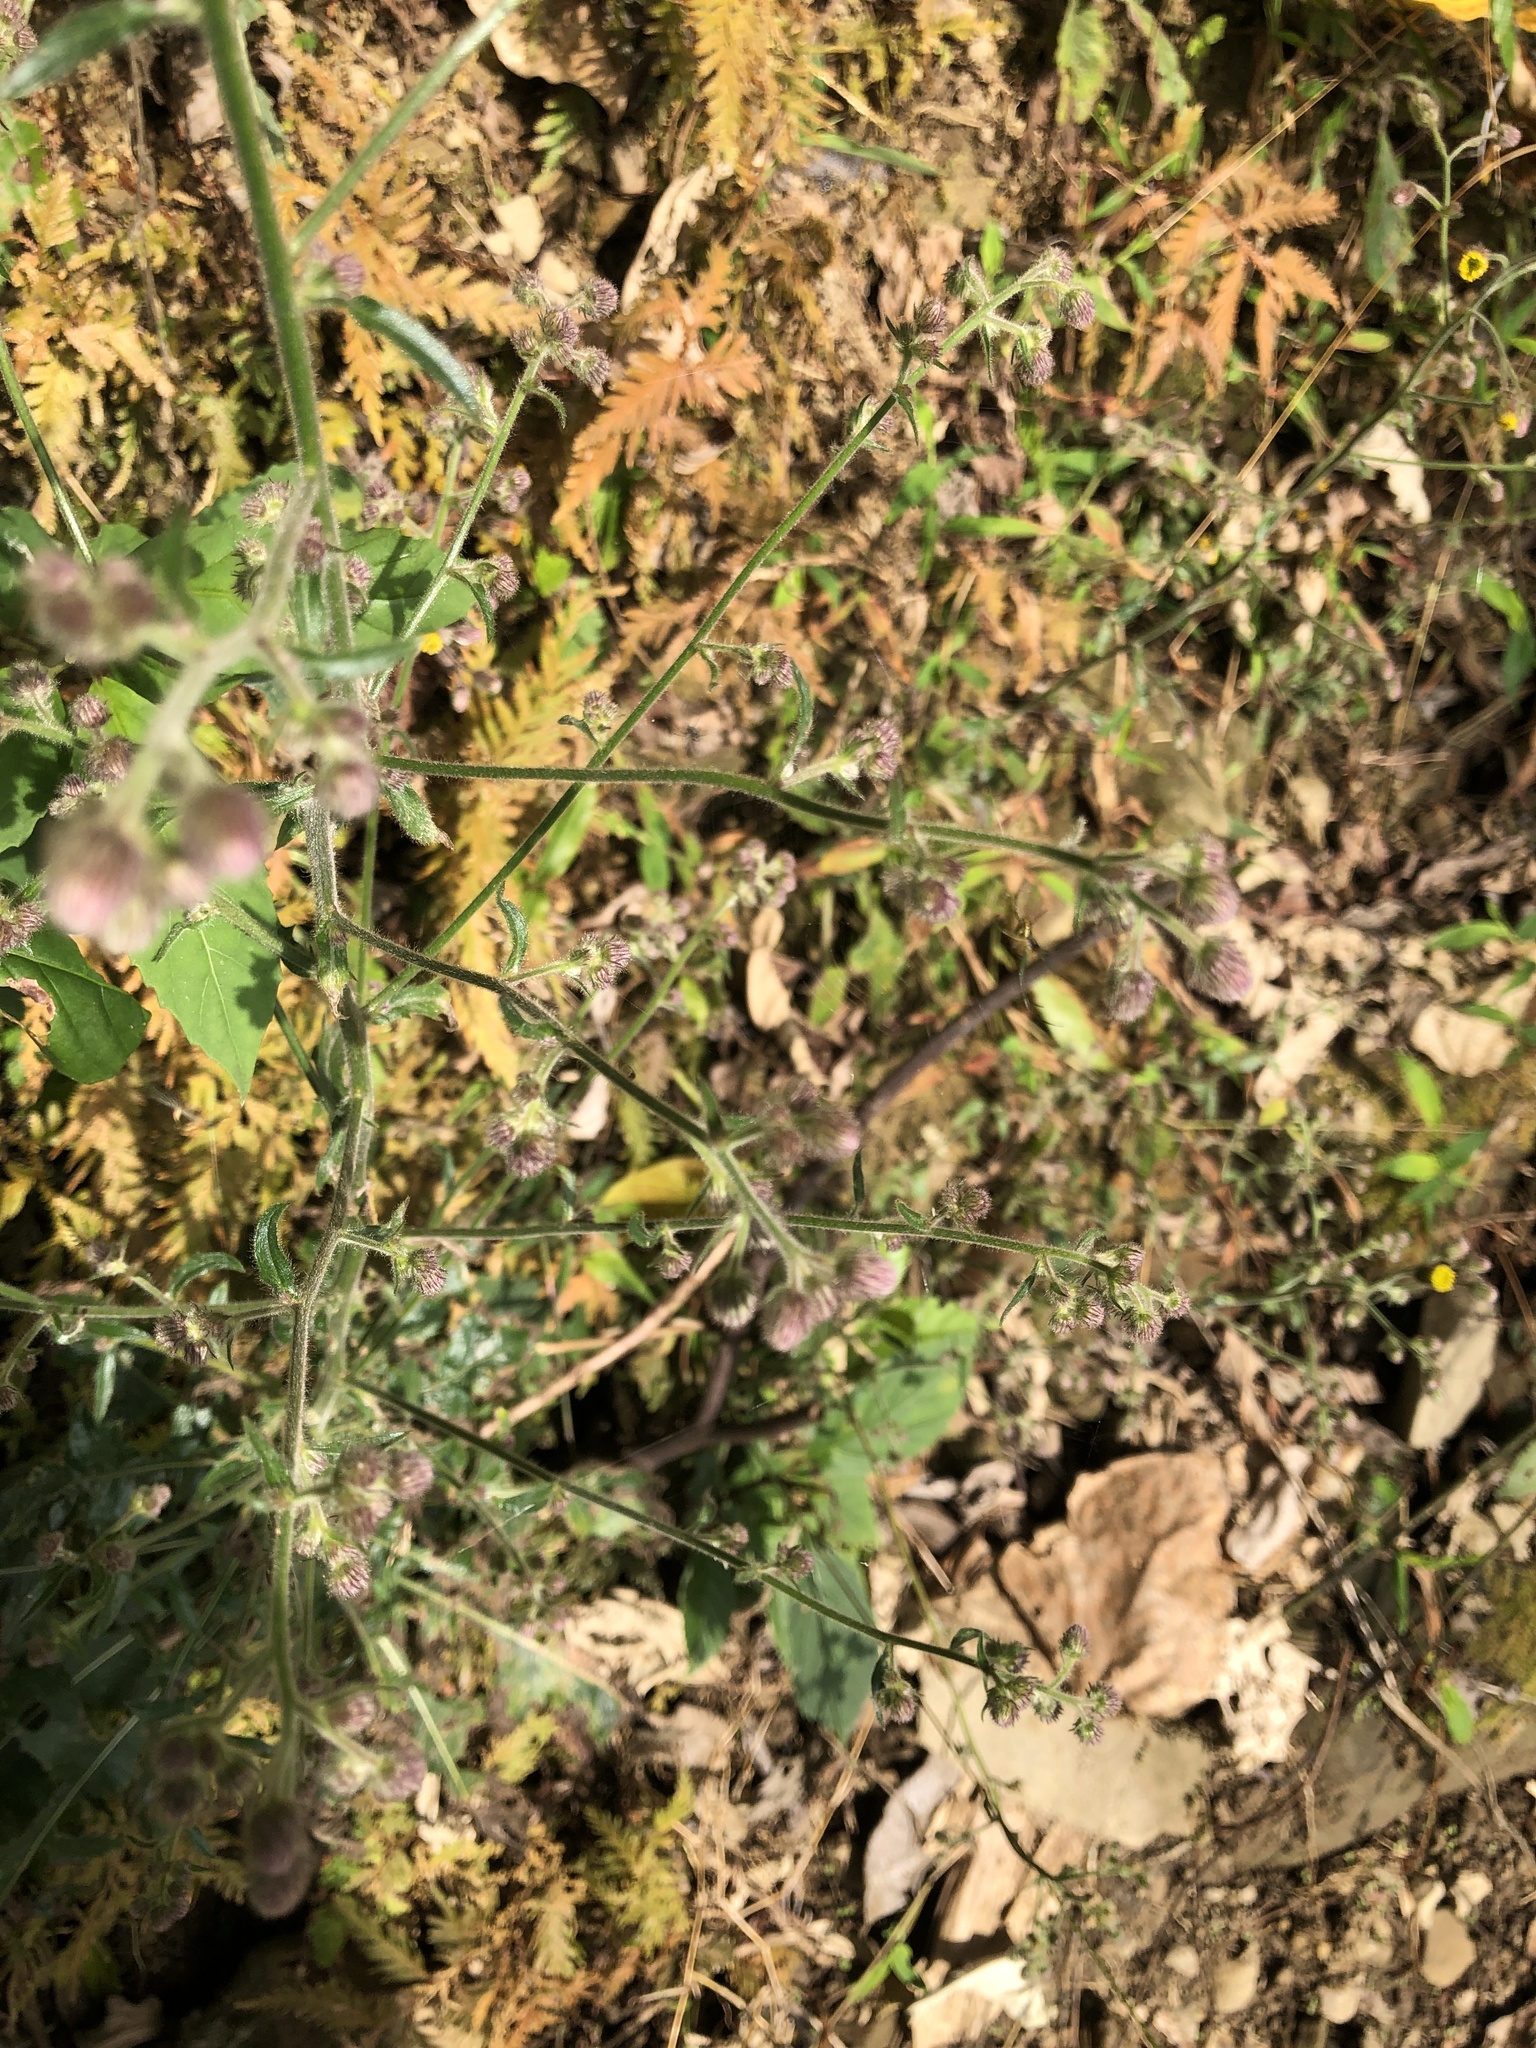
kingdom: Plantae
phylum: Tracheophyta
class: Magnoliopsida
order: Asterales
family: Asteraceae
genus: Blumea
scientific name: Blumea sinuata
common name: Cutleaf false oxtongue
